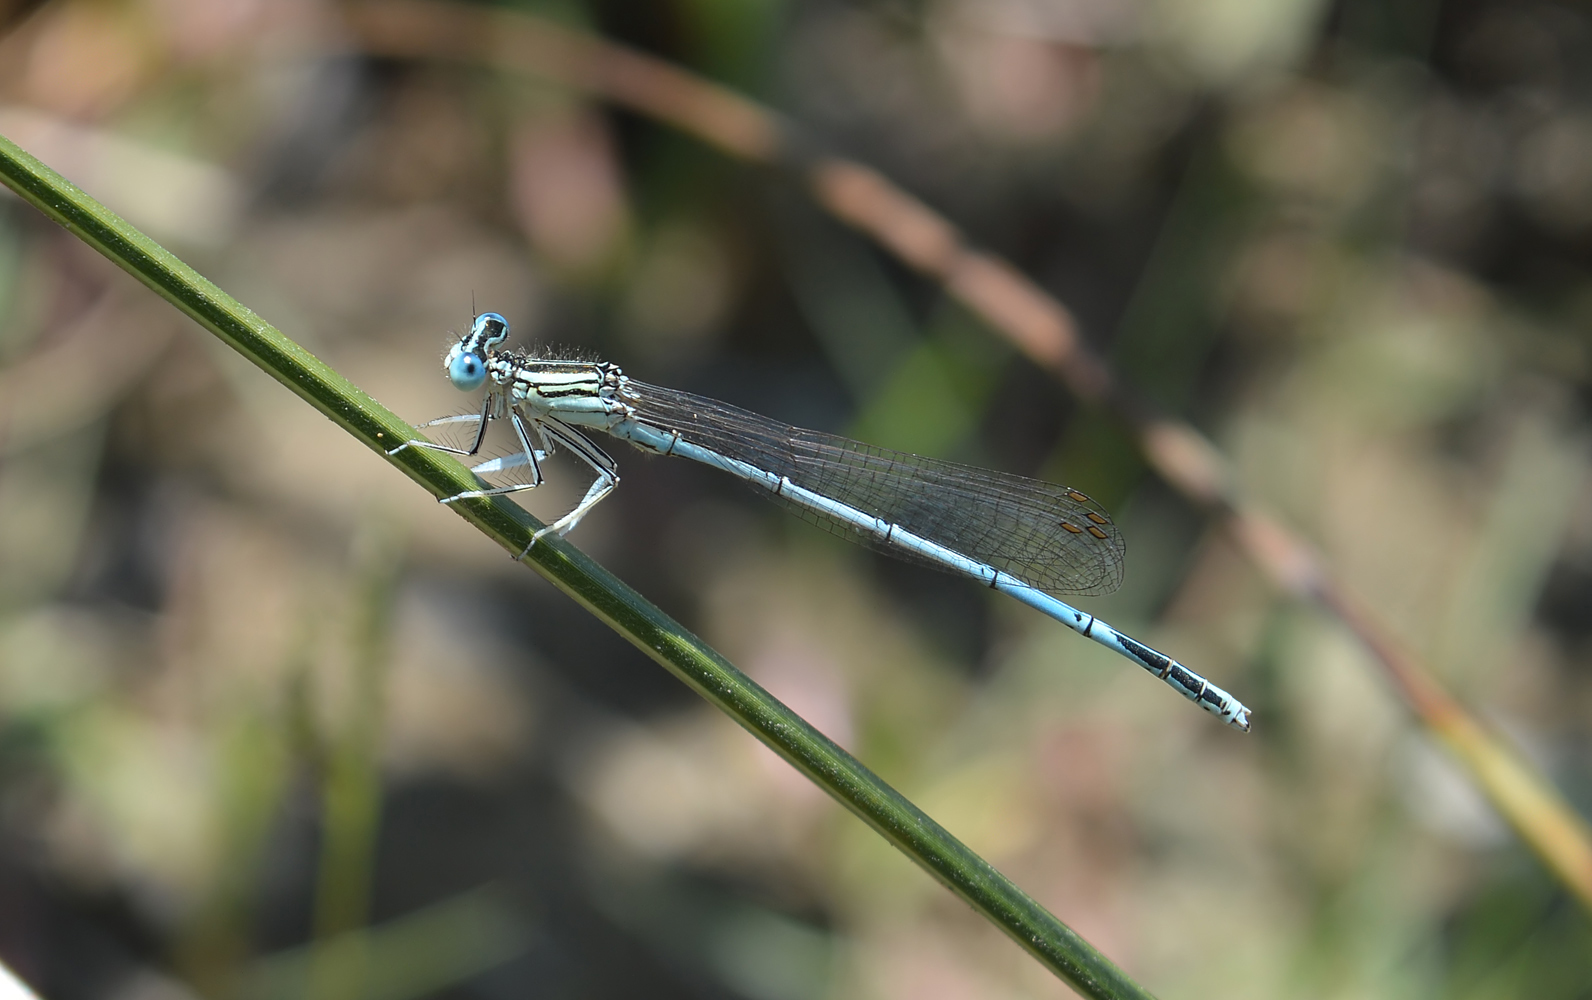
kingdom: Animalia
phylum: Arthropoda
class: Insecta
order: Odonata
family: Platycnemididae
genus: Platycnemis
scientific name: Platycnemis pennipes
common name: White-legged damselfly
